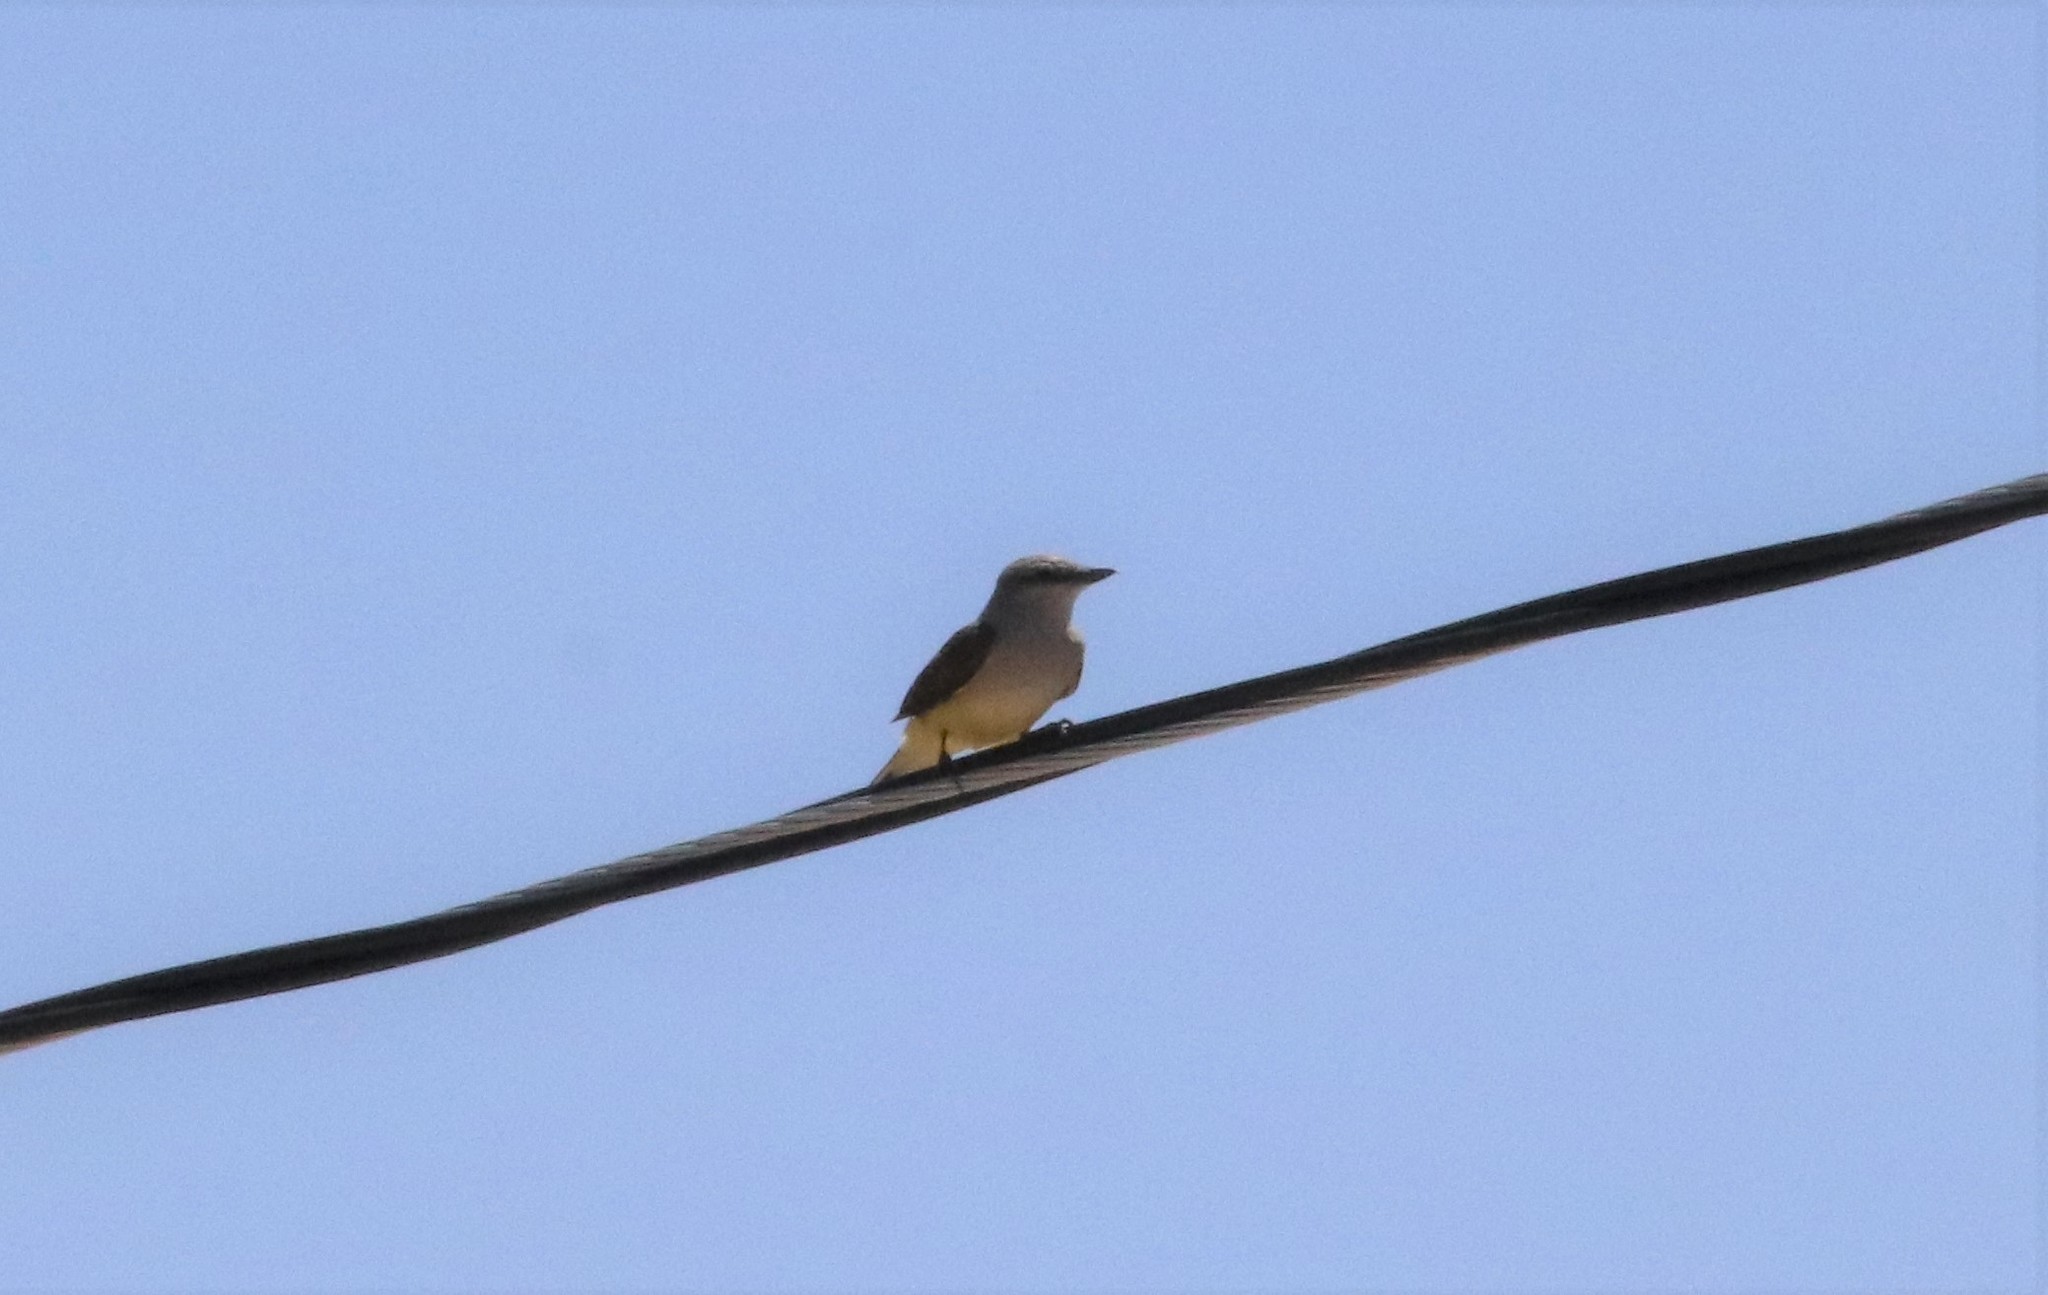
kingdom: Animalia
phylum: Chordata
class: Aves
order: Passeriformes
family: Tyrannidae
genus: Tyrannus
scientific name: Tyrannus verticalis
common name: Western kingbird
